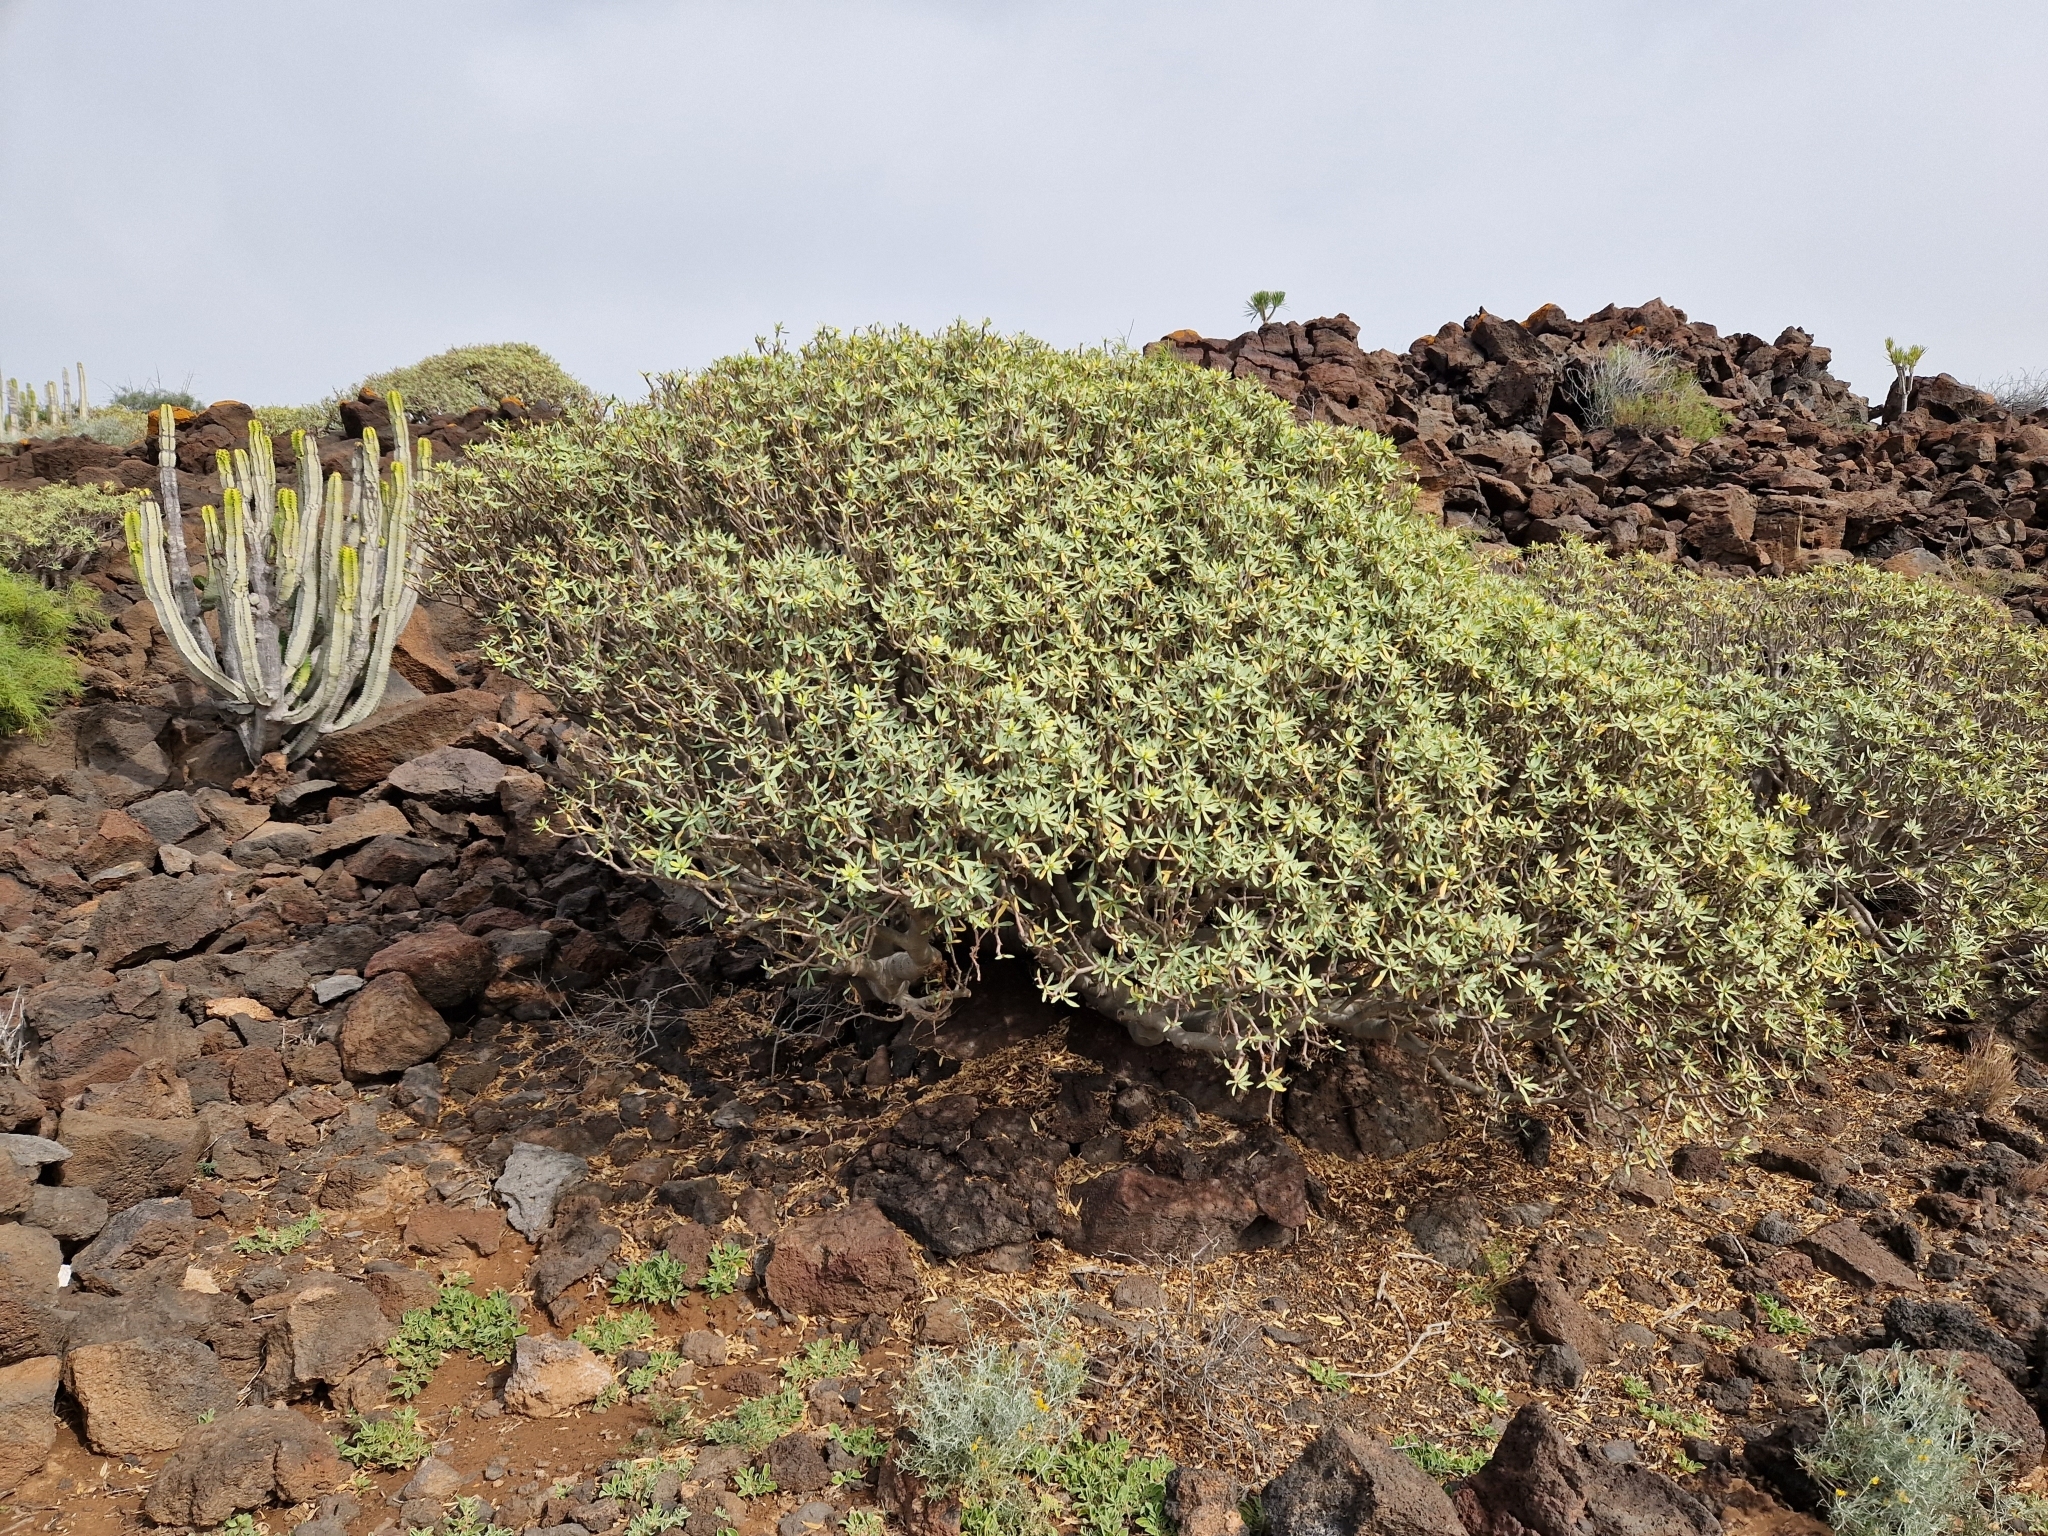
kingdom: Plantae
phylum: Tracheophyta
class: Magnoliopsida
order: Malpighiales
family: Euphorbiaceae
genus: Euphorbia
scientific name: Euphorbia balsamifera
